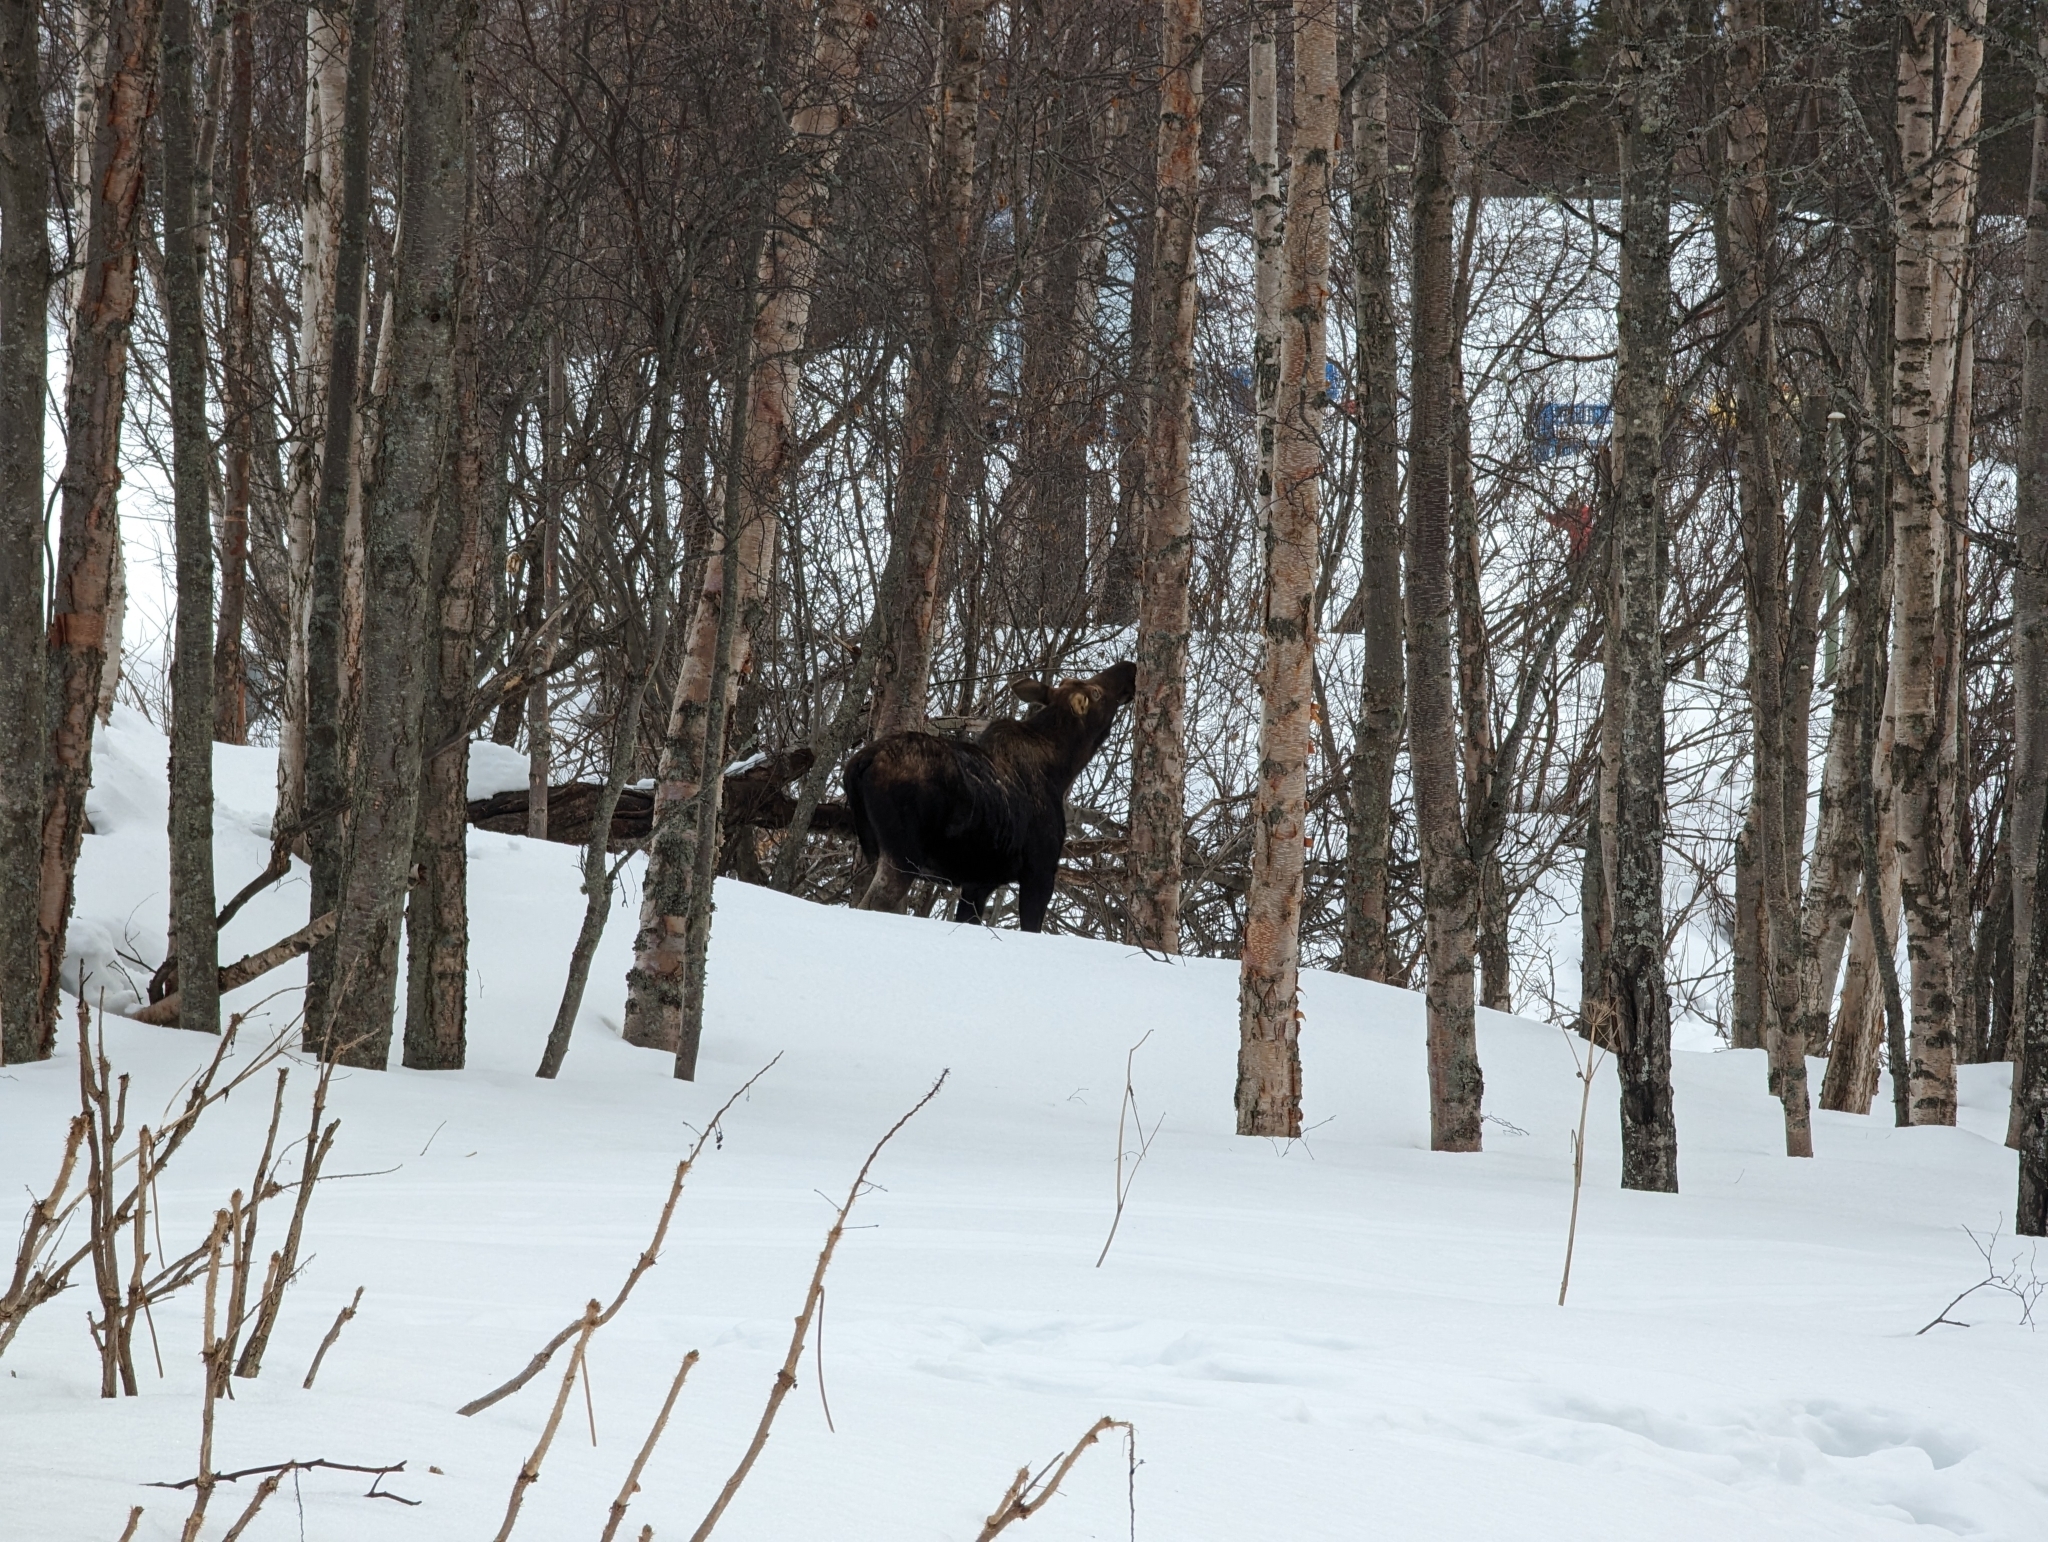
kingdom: Animalia
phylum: Chordata
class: Mammalia
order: Artiodactyla
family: Cervidae
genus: Alces
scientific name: Alces alces
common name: Moose
